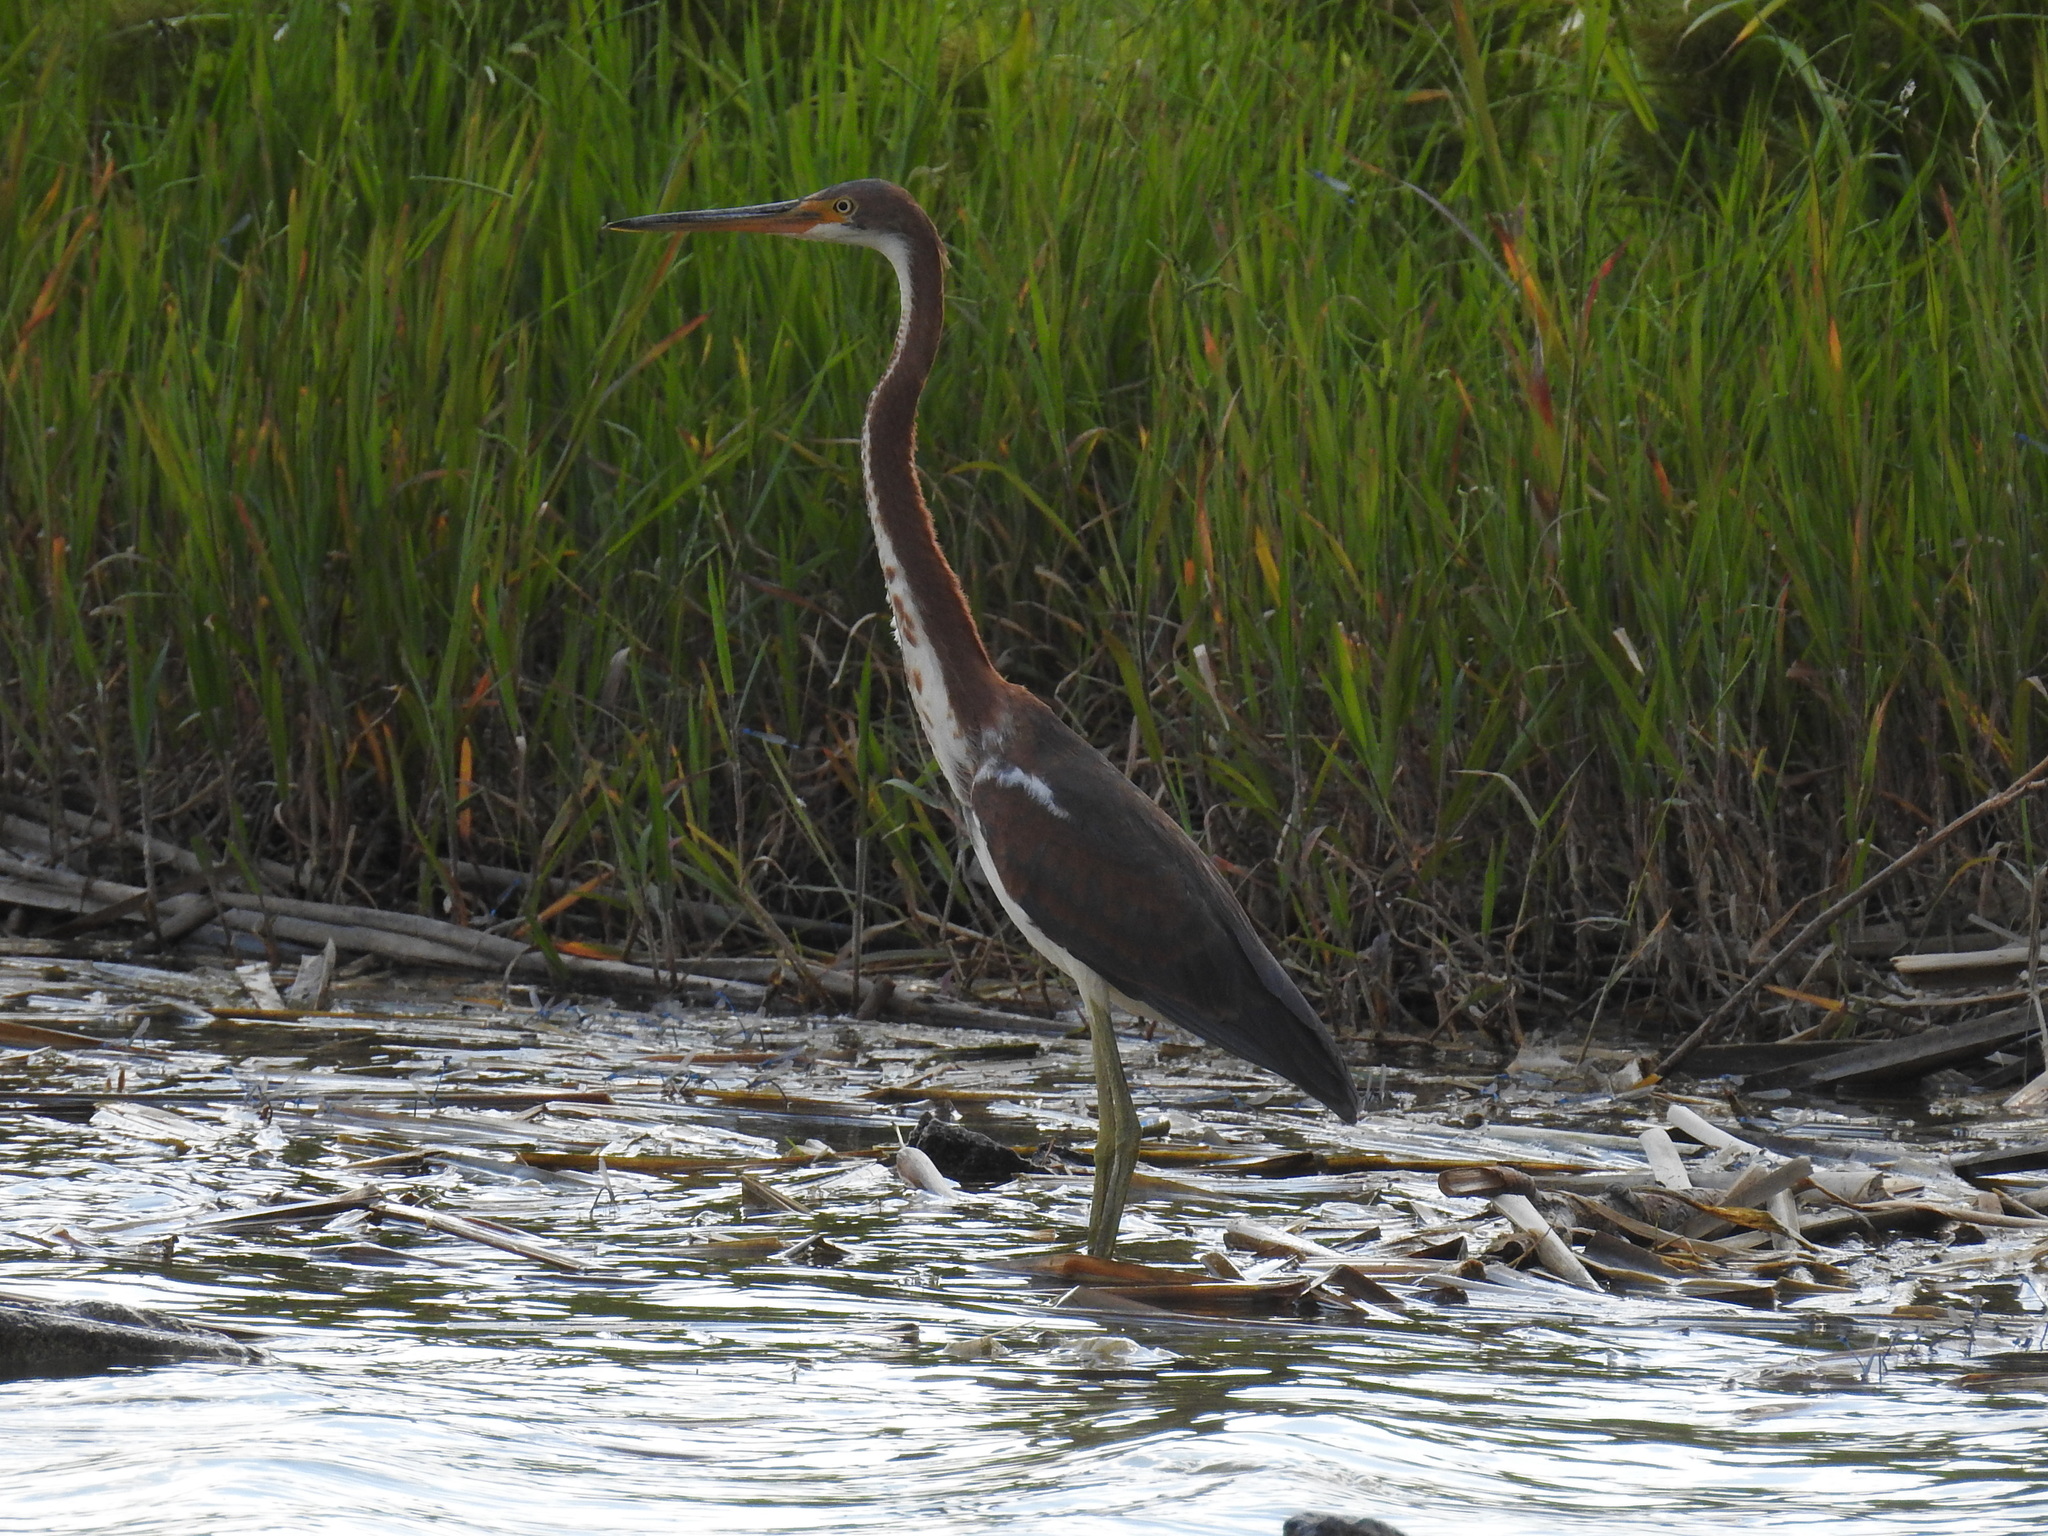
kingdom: Animalia
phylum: Chordata
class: Aves
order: Pelecaniformes
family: Ardeidae
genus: Egretta
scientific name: Egretta tricolor
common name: Tricolored heron
